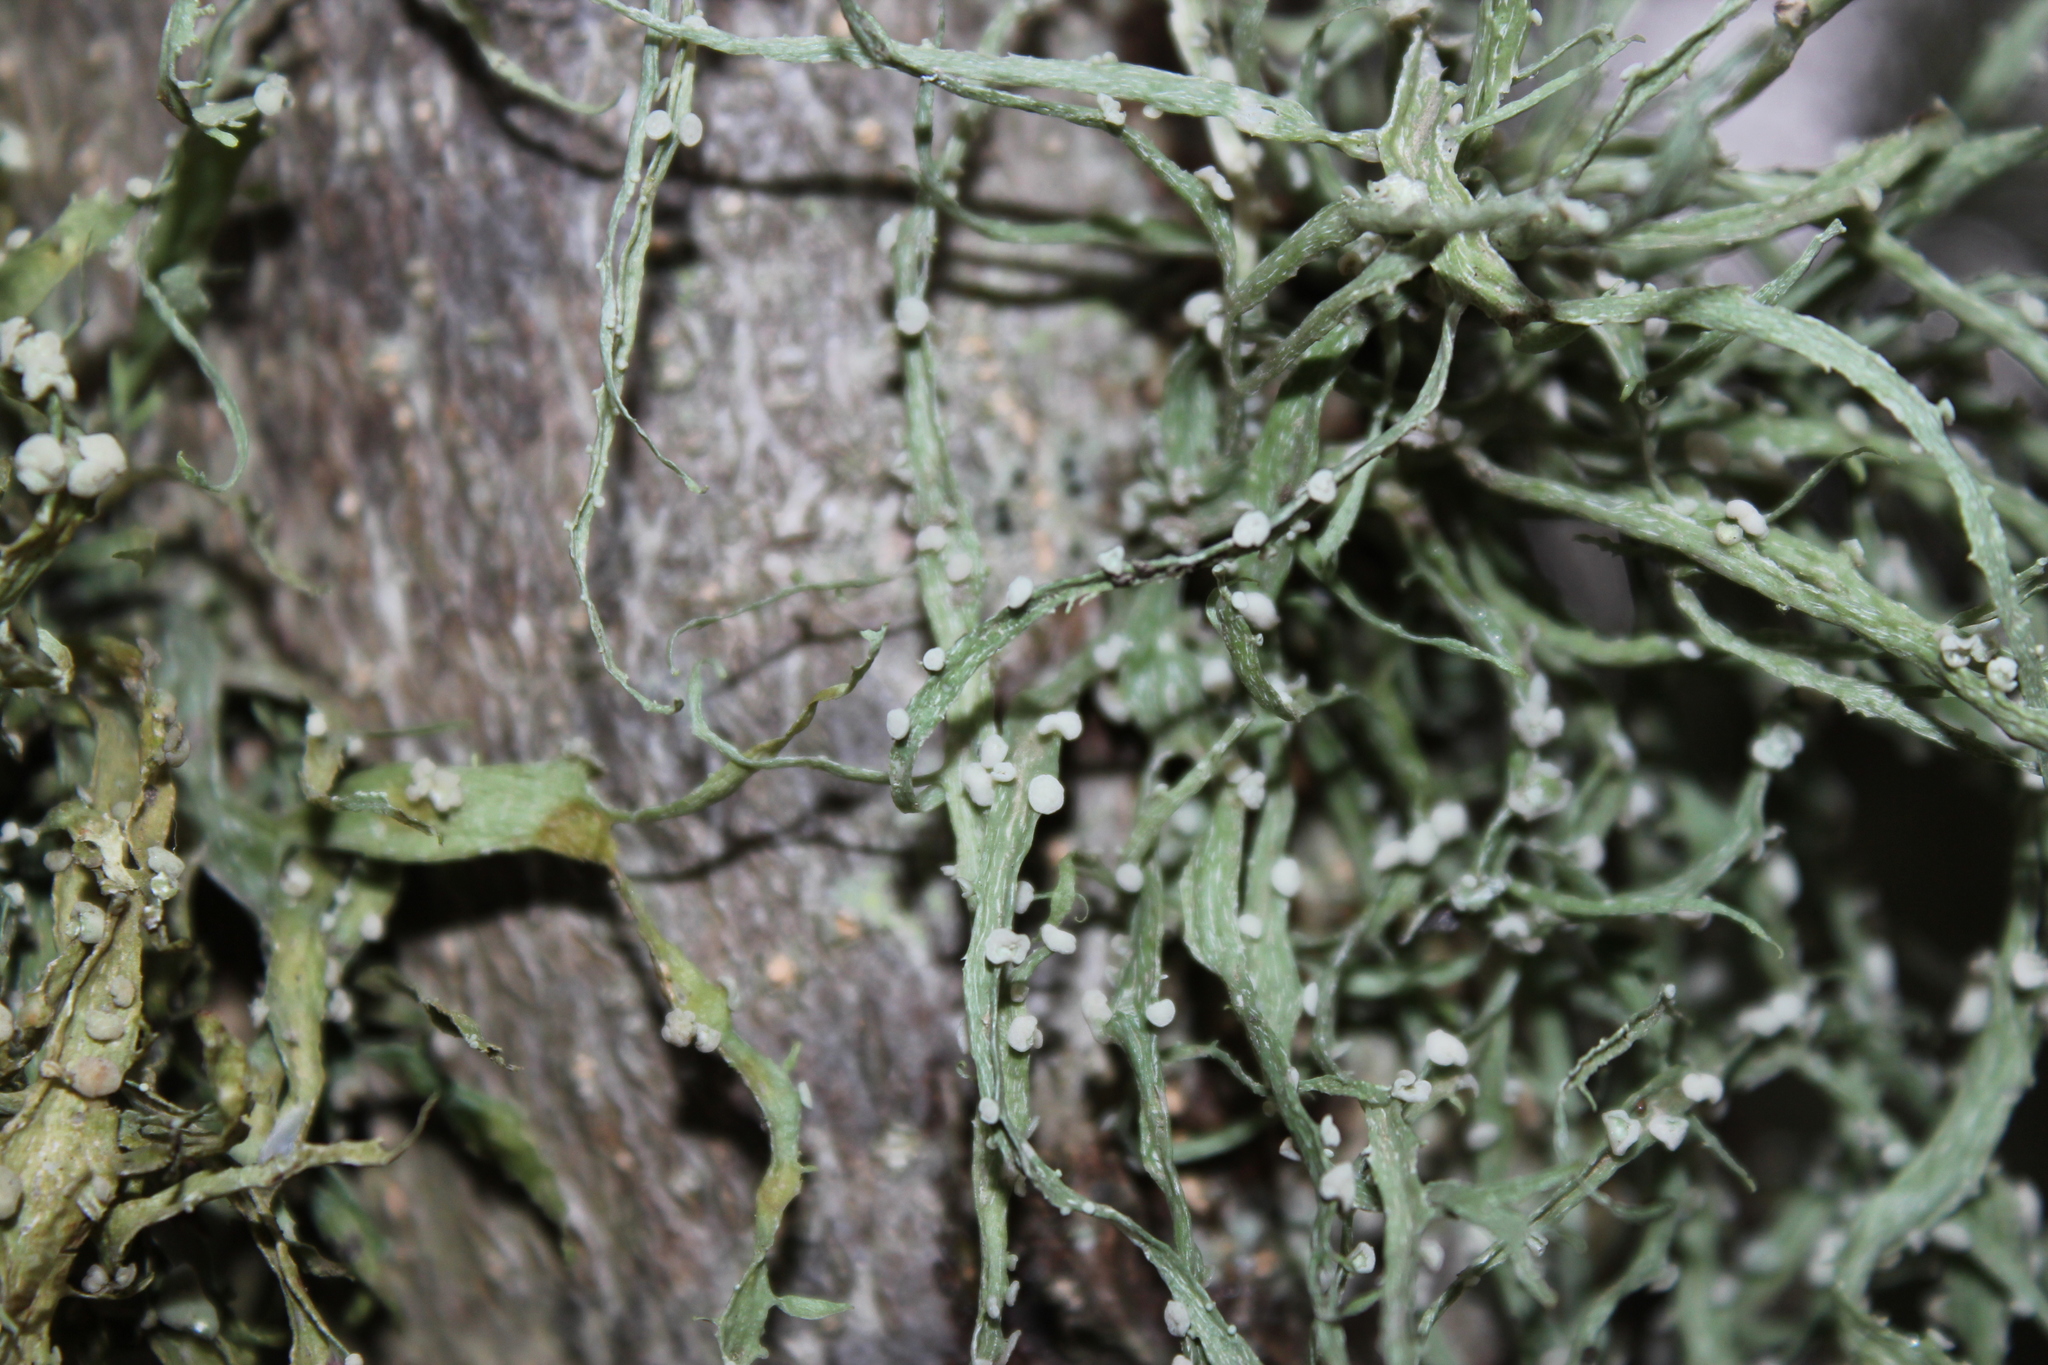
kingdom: Fungi
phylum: Ascomycota
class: Lecanoromycetes
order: Lecanorales
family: Ramalinaceae
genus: Ramalina
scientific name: Ramalina celastri
